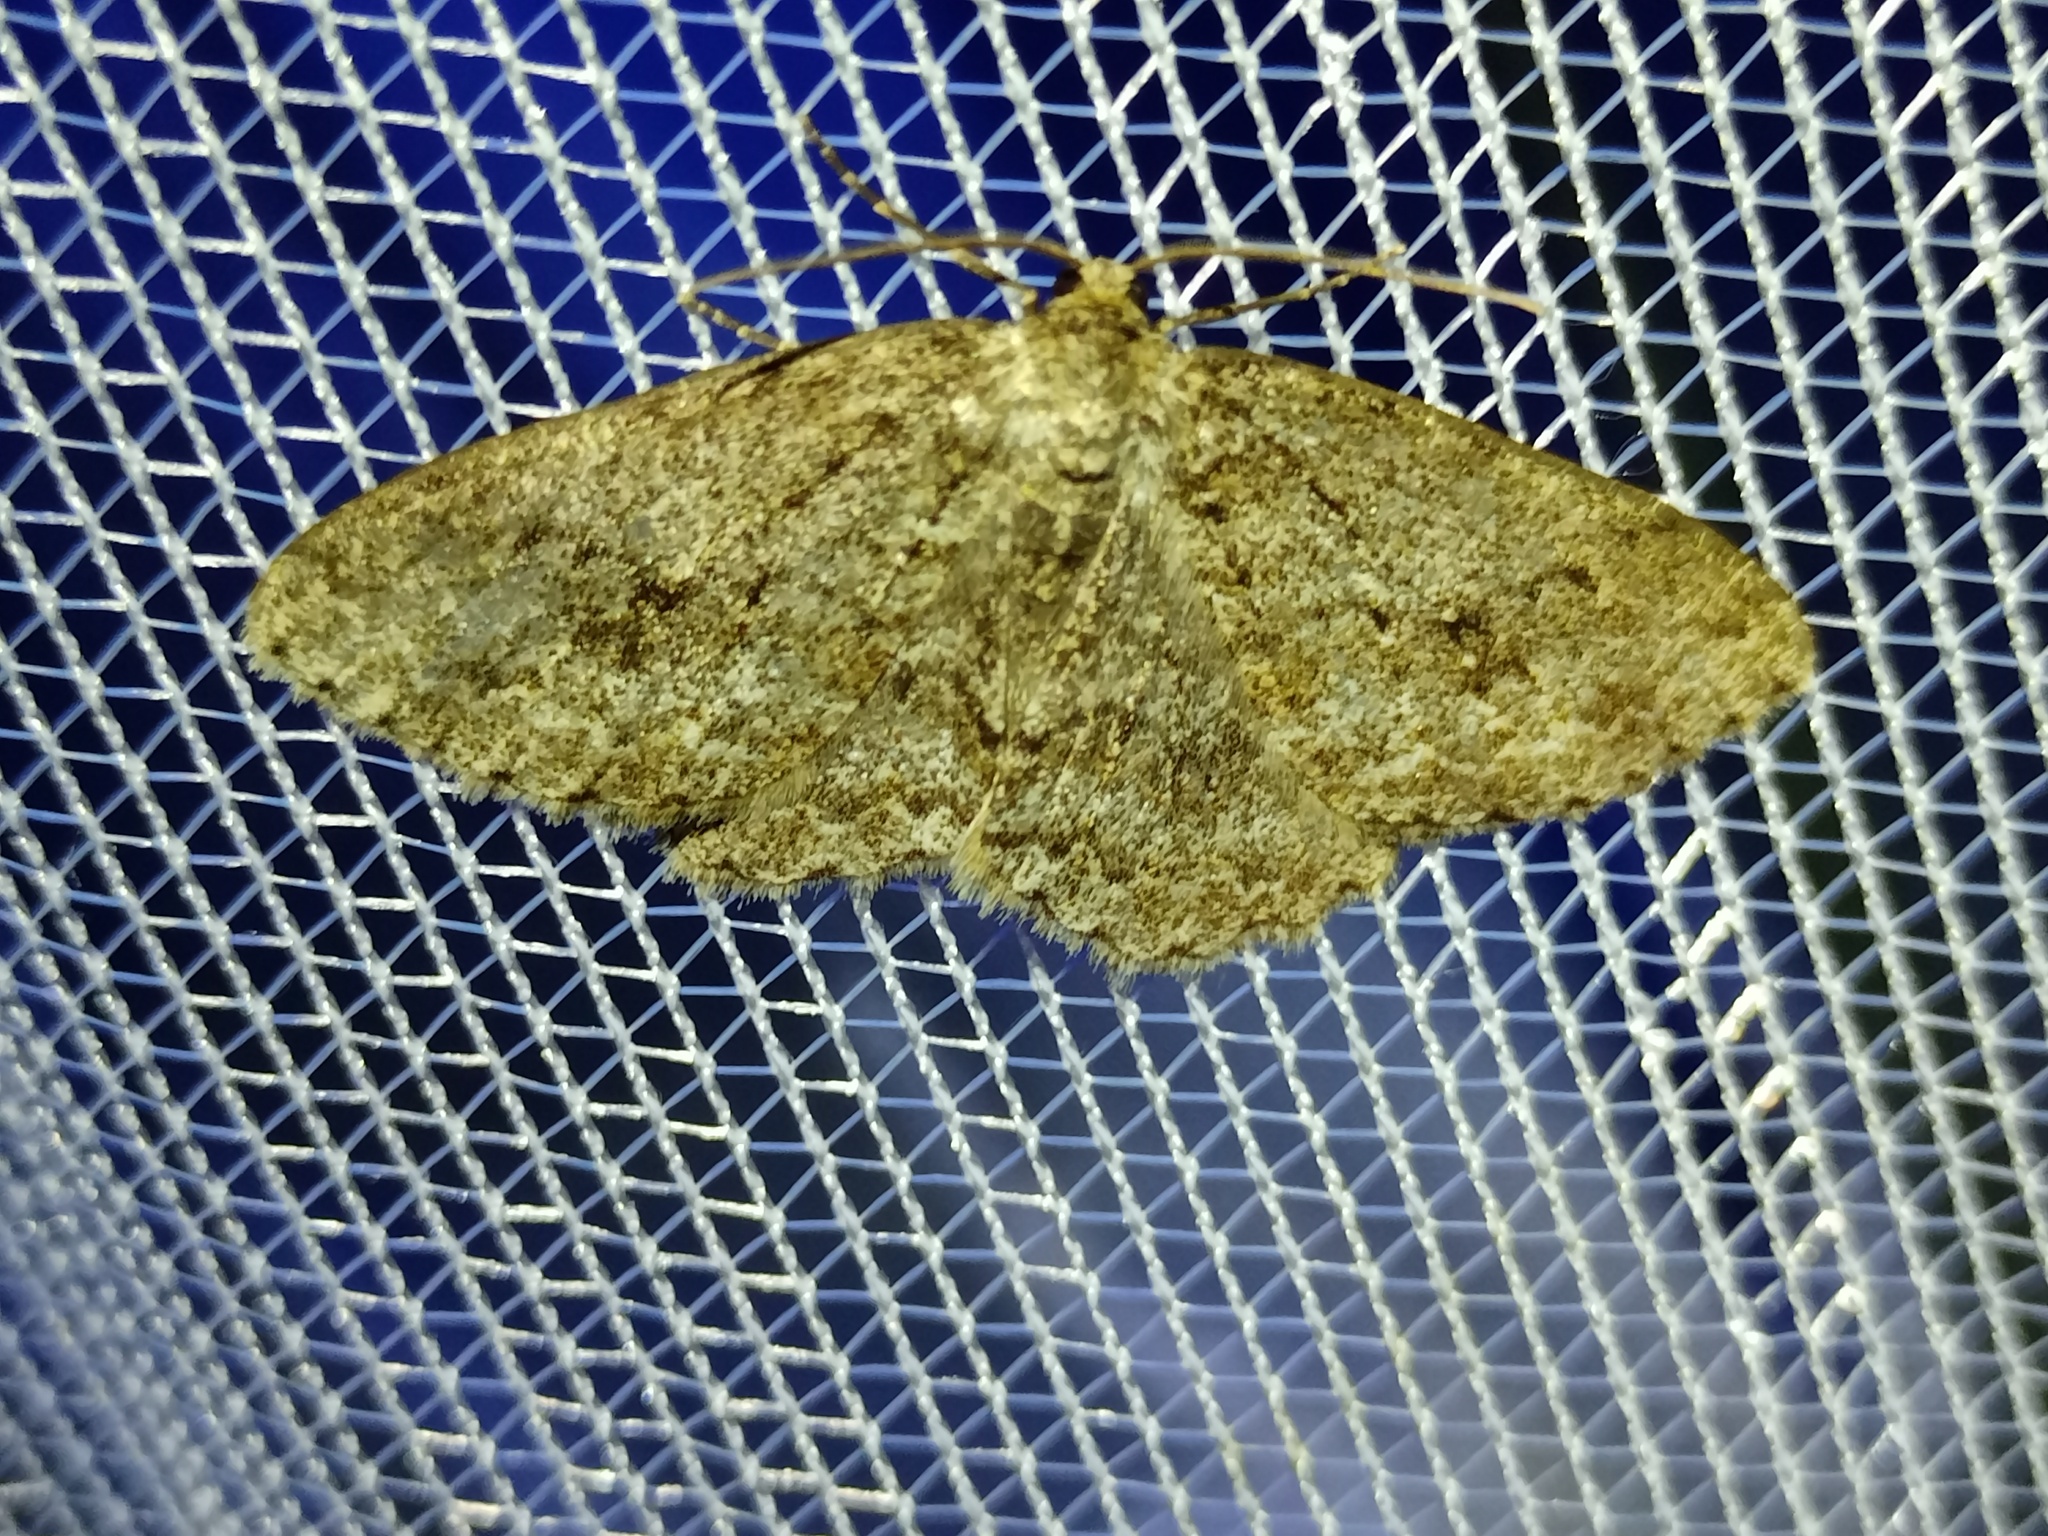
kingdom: Animalia
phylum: Arthropoda
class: Insecta
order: Lepidoptera
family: Geometridae
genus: Ectropis
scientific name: Ectropis crepuscularia
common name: Engrailed
